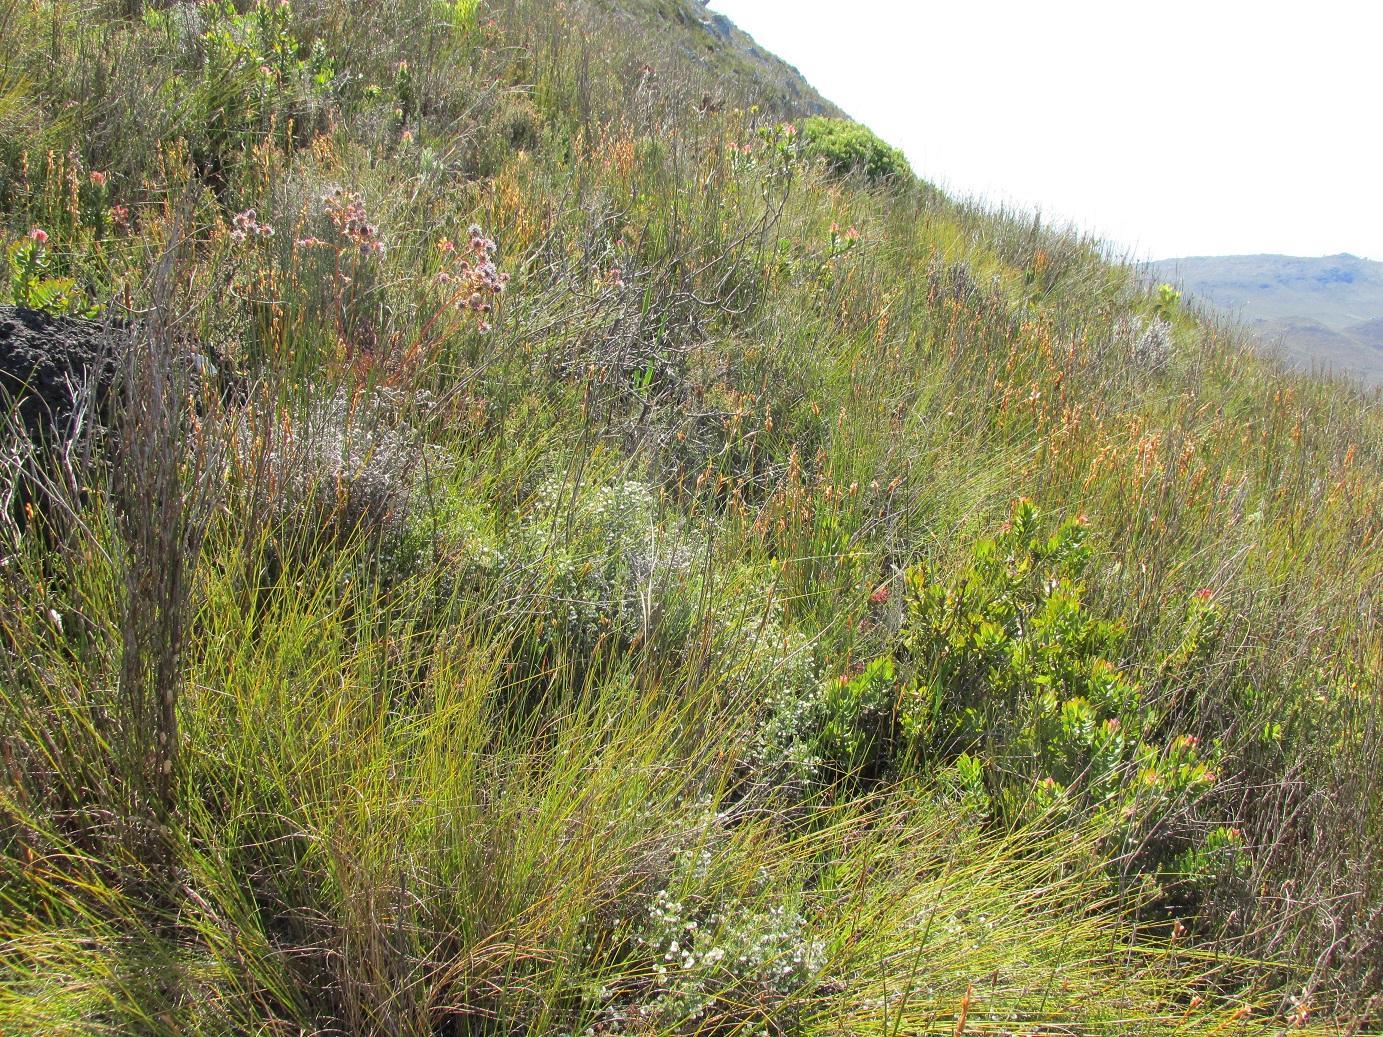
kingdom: Plantae
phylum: Tracheophyta
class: Magnoliopsida
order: Ericales
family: Ericaceae
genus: Erica
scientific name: Erica cumuliflora
